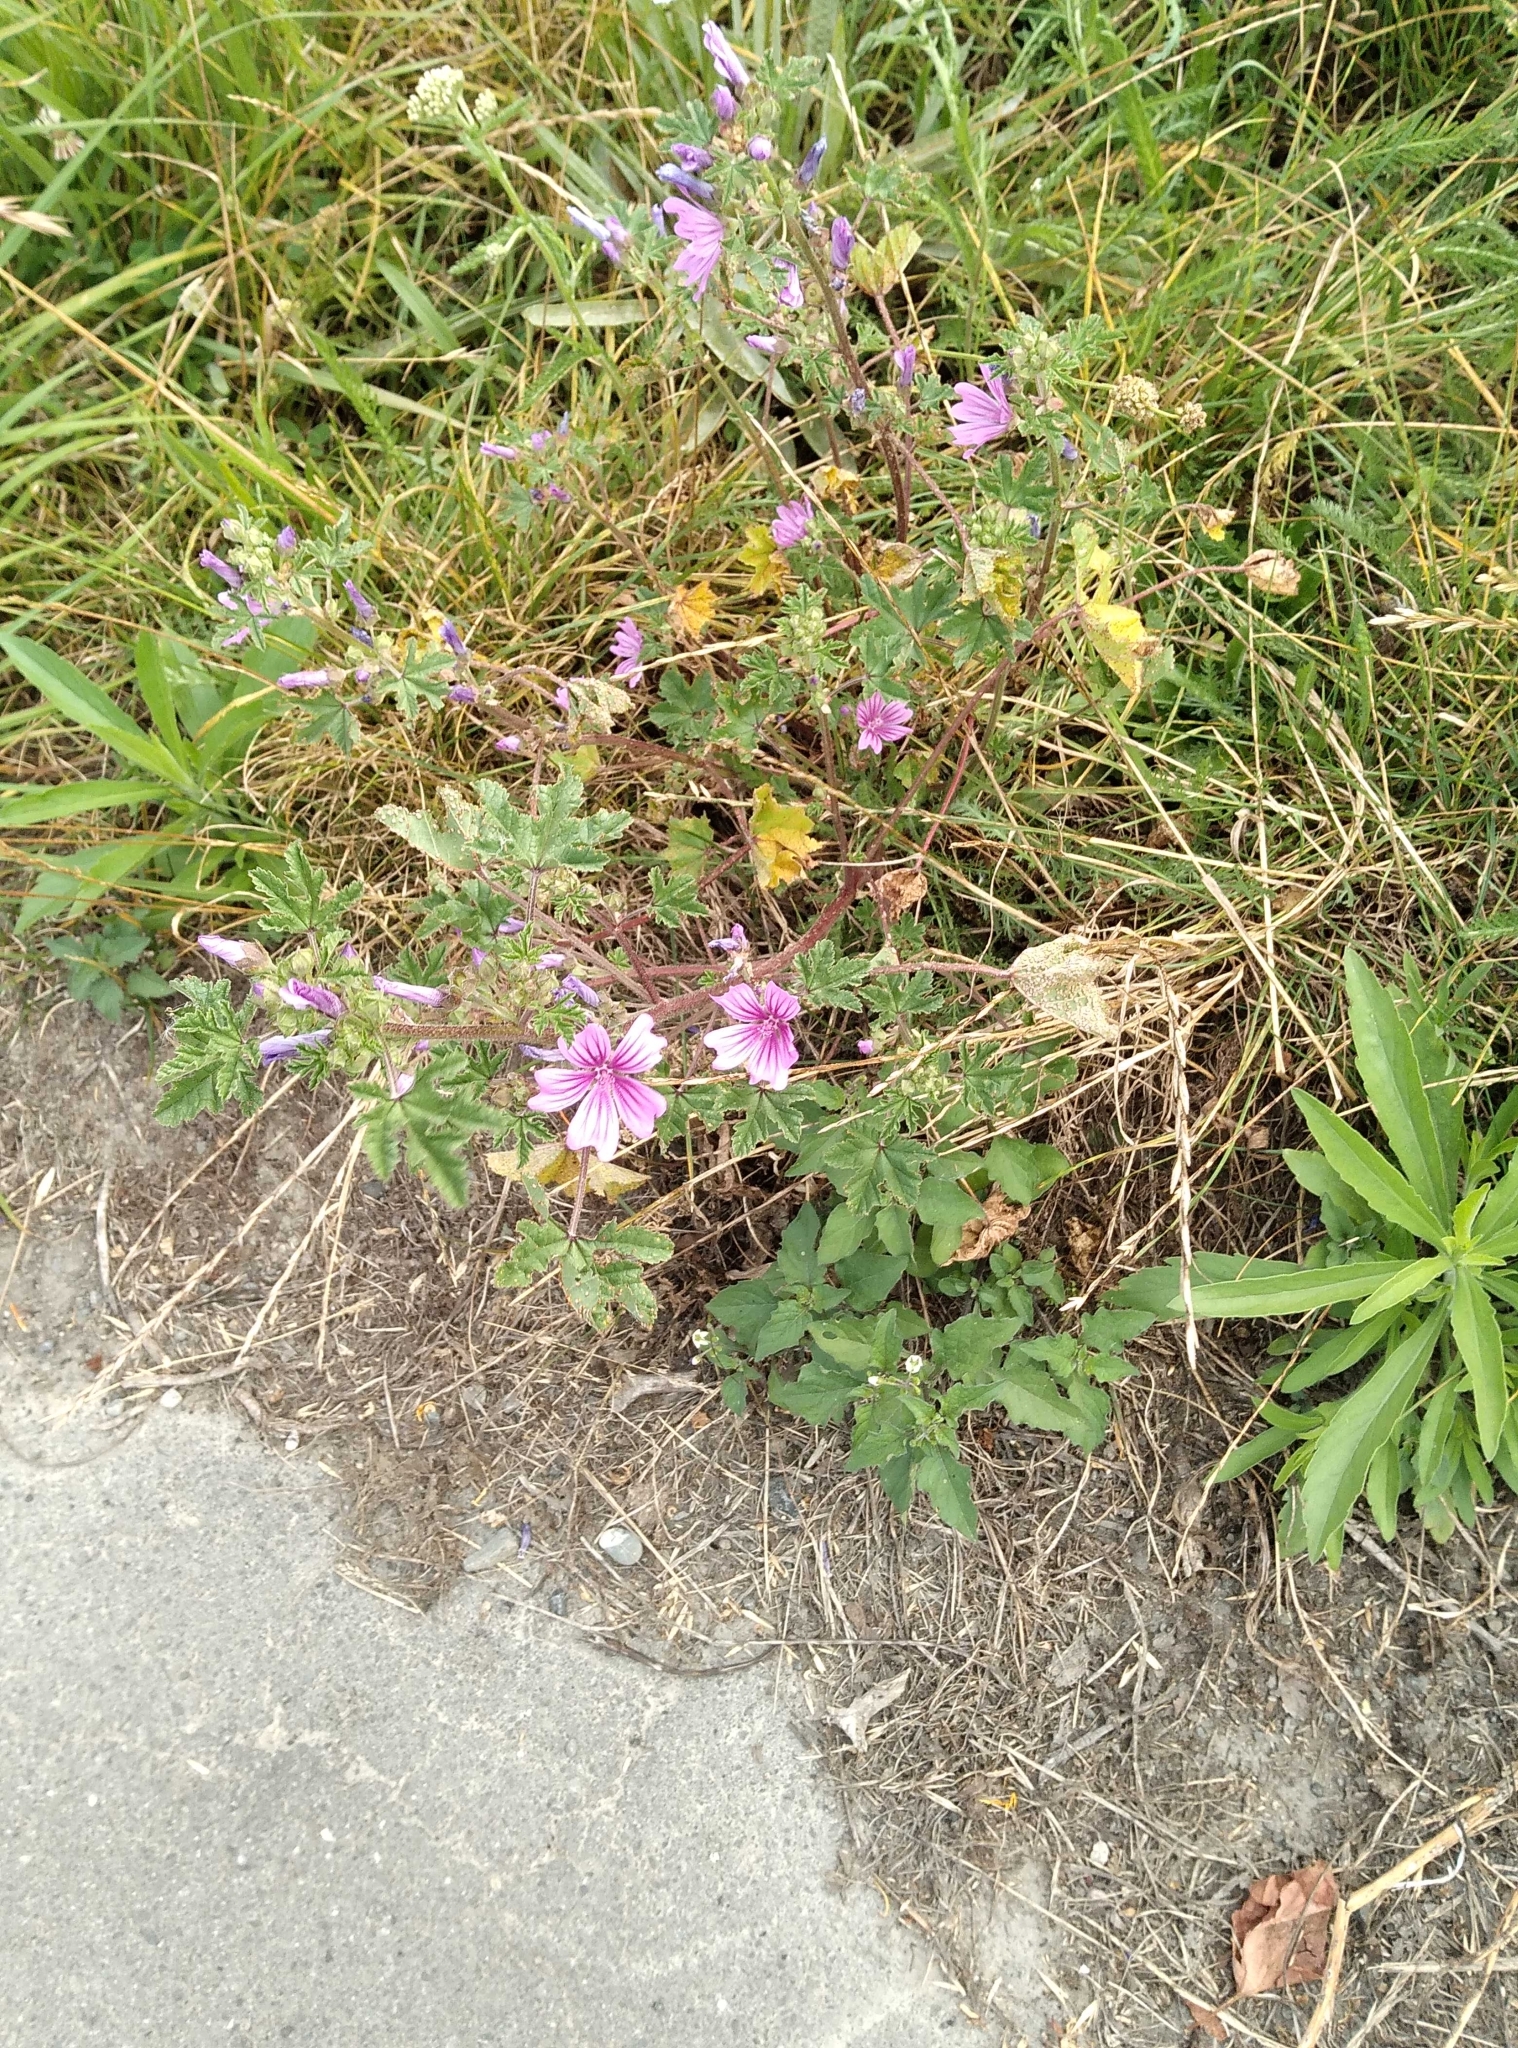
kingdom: Plantae
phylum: Tracheophyta
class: Magnoliopsida
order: Malvales
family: Malvaceae
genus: Malva
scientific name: Malva sylvestris
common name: Common mallow
